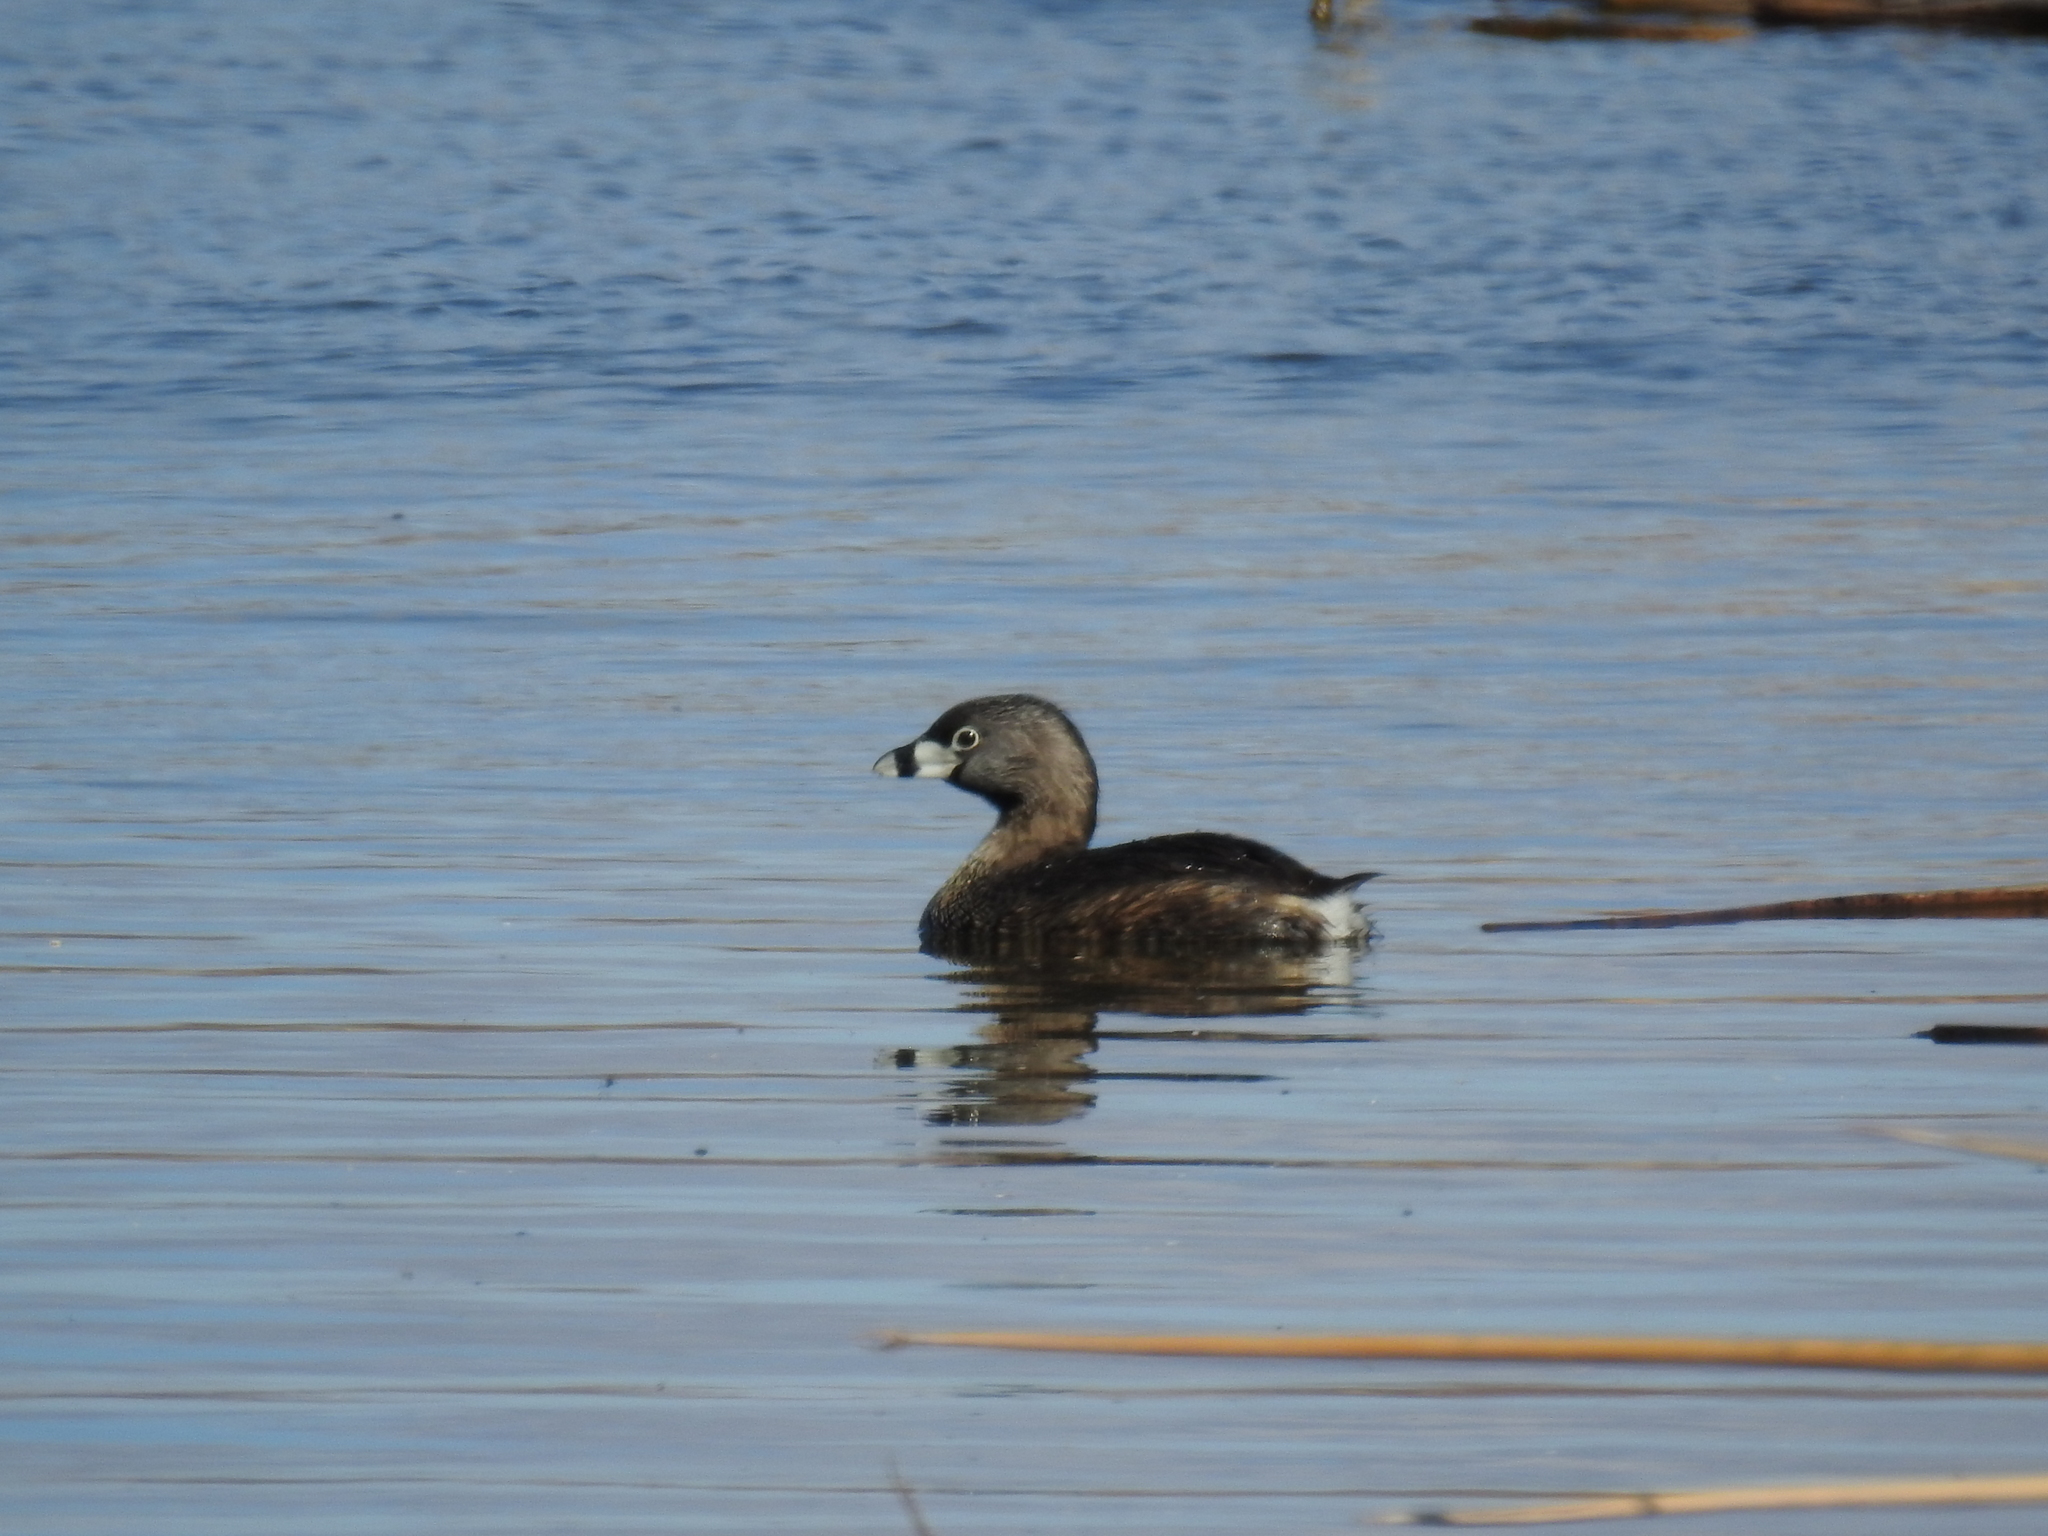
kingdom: Animalia
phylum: Chordata
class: Aves
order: Podicipediformes
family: Podicipedidae
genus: Podilymbus
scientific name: Podilymbus podiceps
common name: Pied-billed grebe
